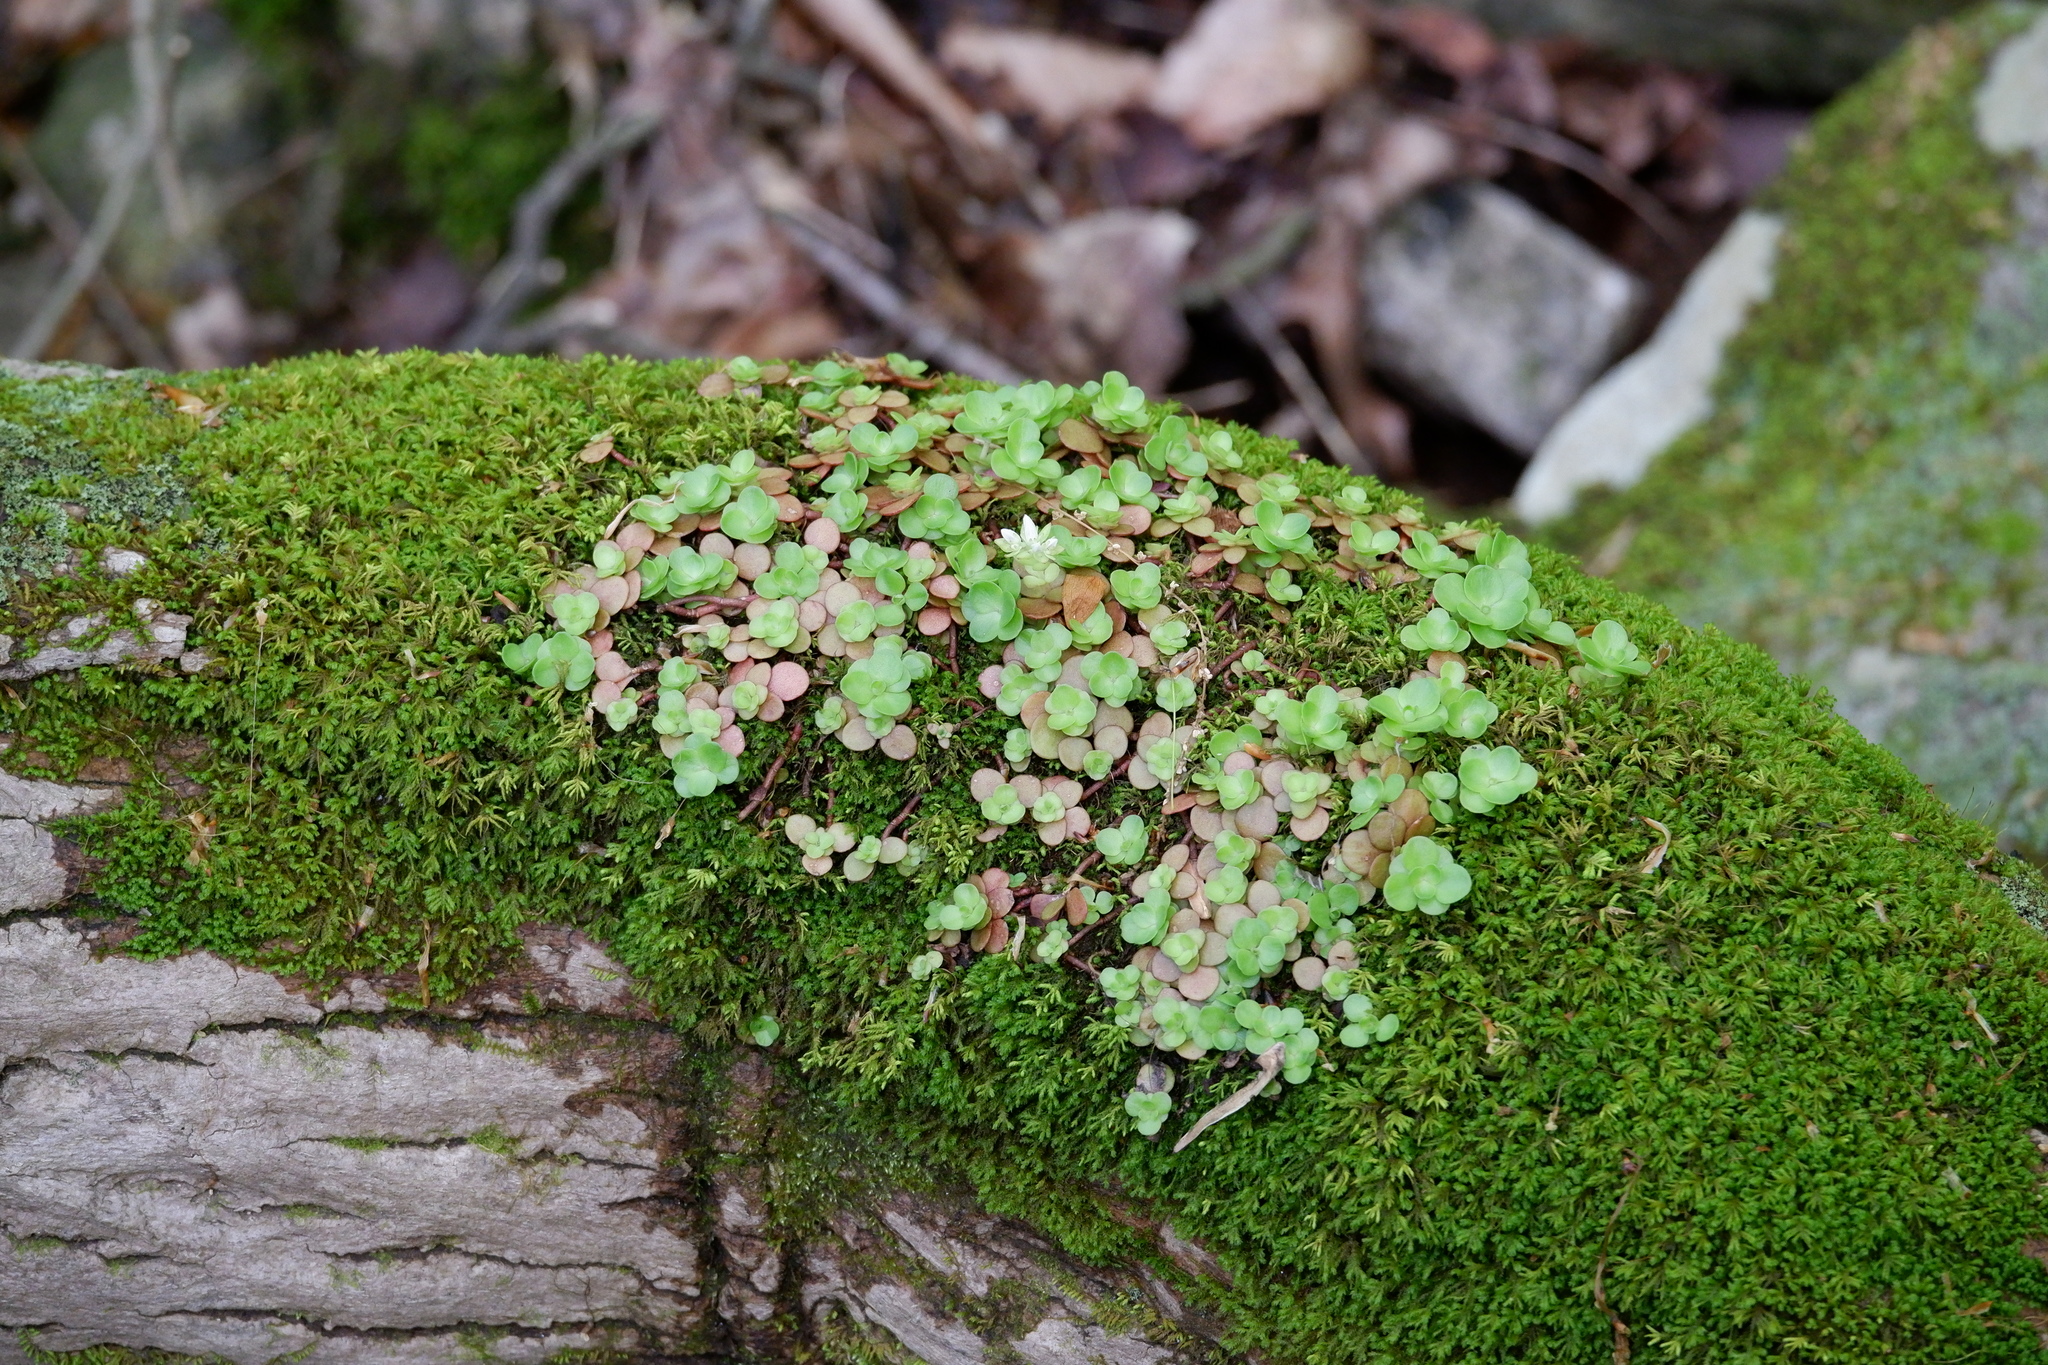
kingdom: Plantae
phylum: Tracheophyta
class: Magnoliopsida
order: Saxifragales
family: Crassulaceae
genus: Sedum
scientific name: Sedum ternatum
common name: Wild stonecrop
